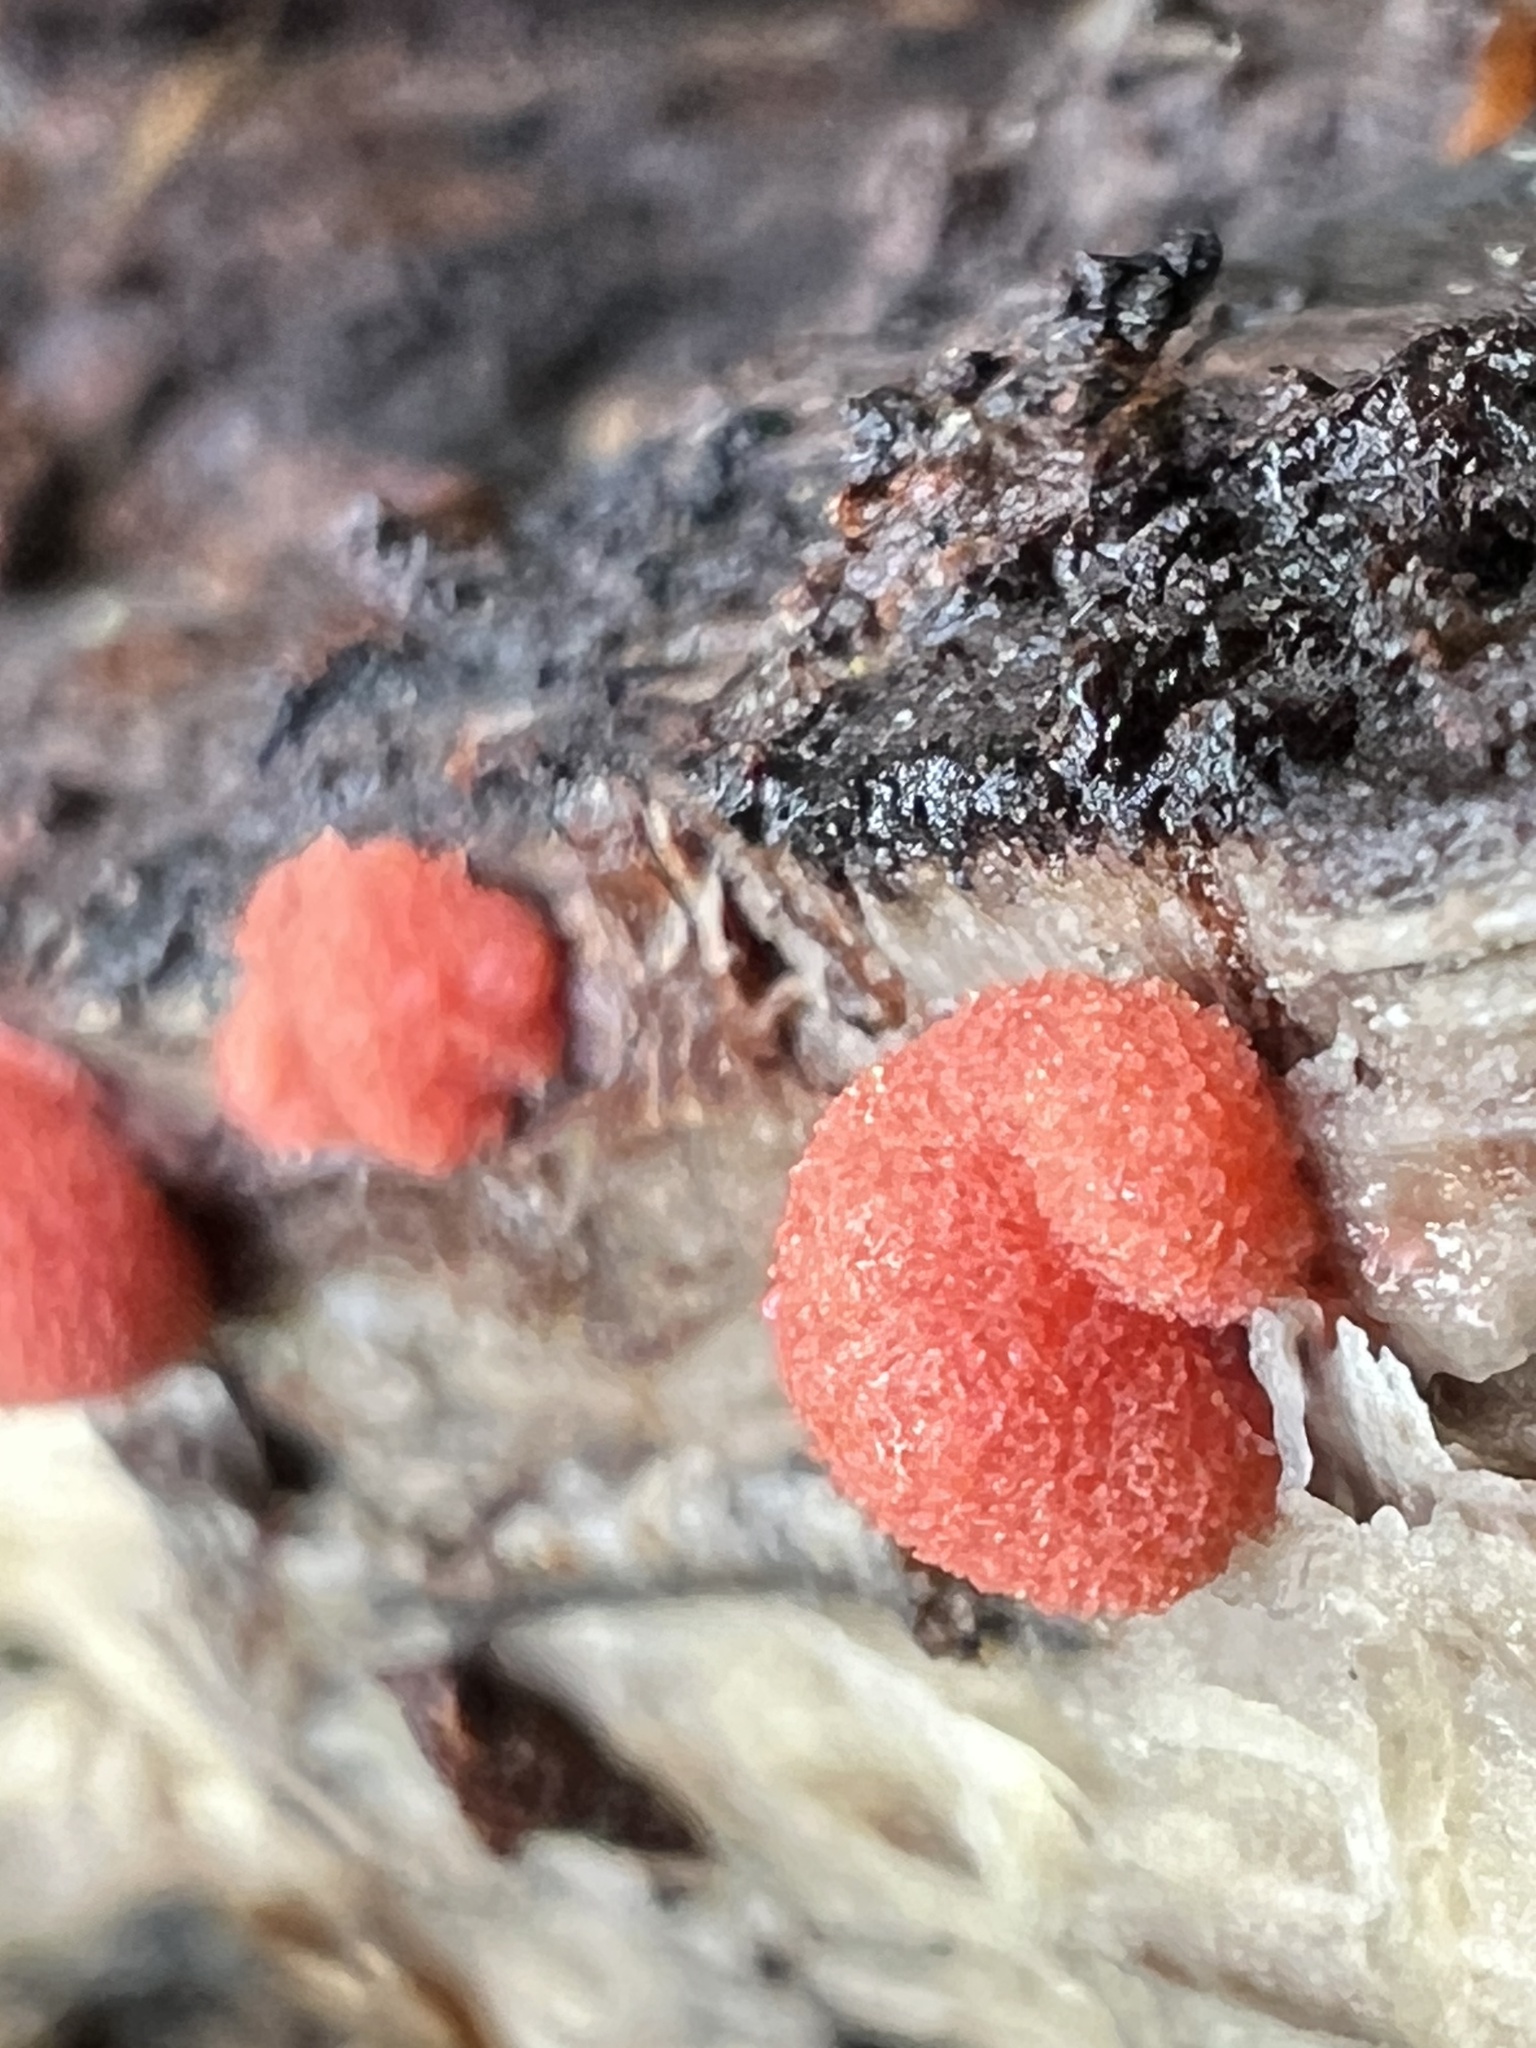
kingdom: Protozoa
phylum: Mycetozoa
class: Myxomycetes
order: Cribrariales
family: Tubiferaceae
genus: Tubifera
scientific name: Tubifera ferruginosa
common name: Red raspberry slime mold
